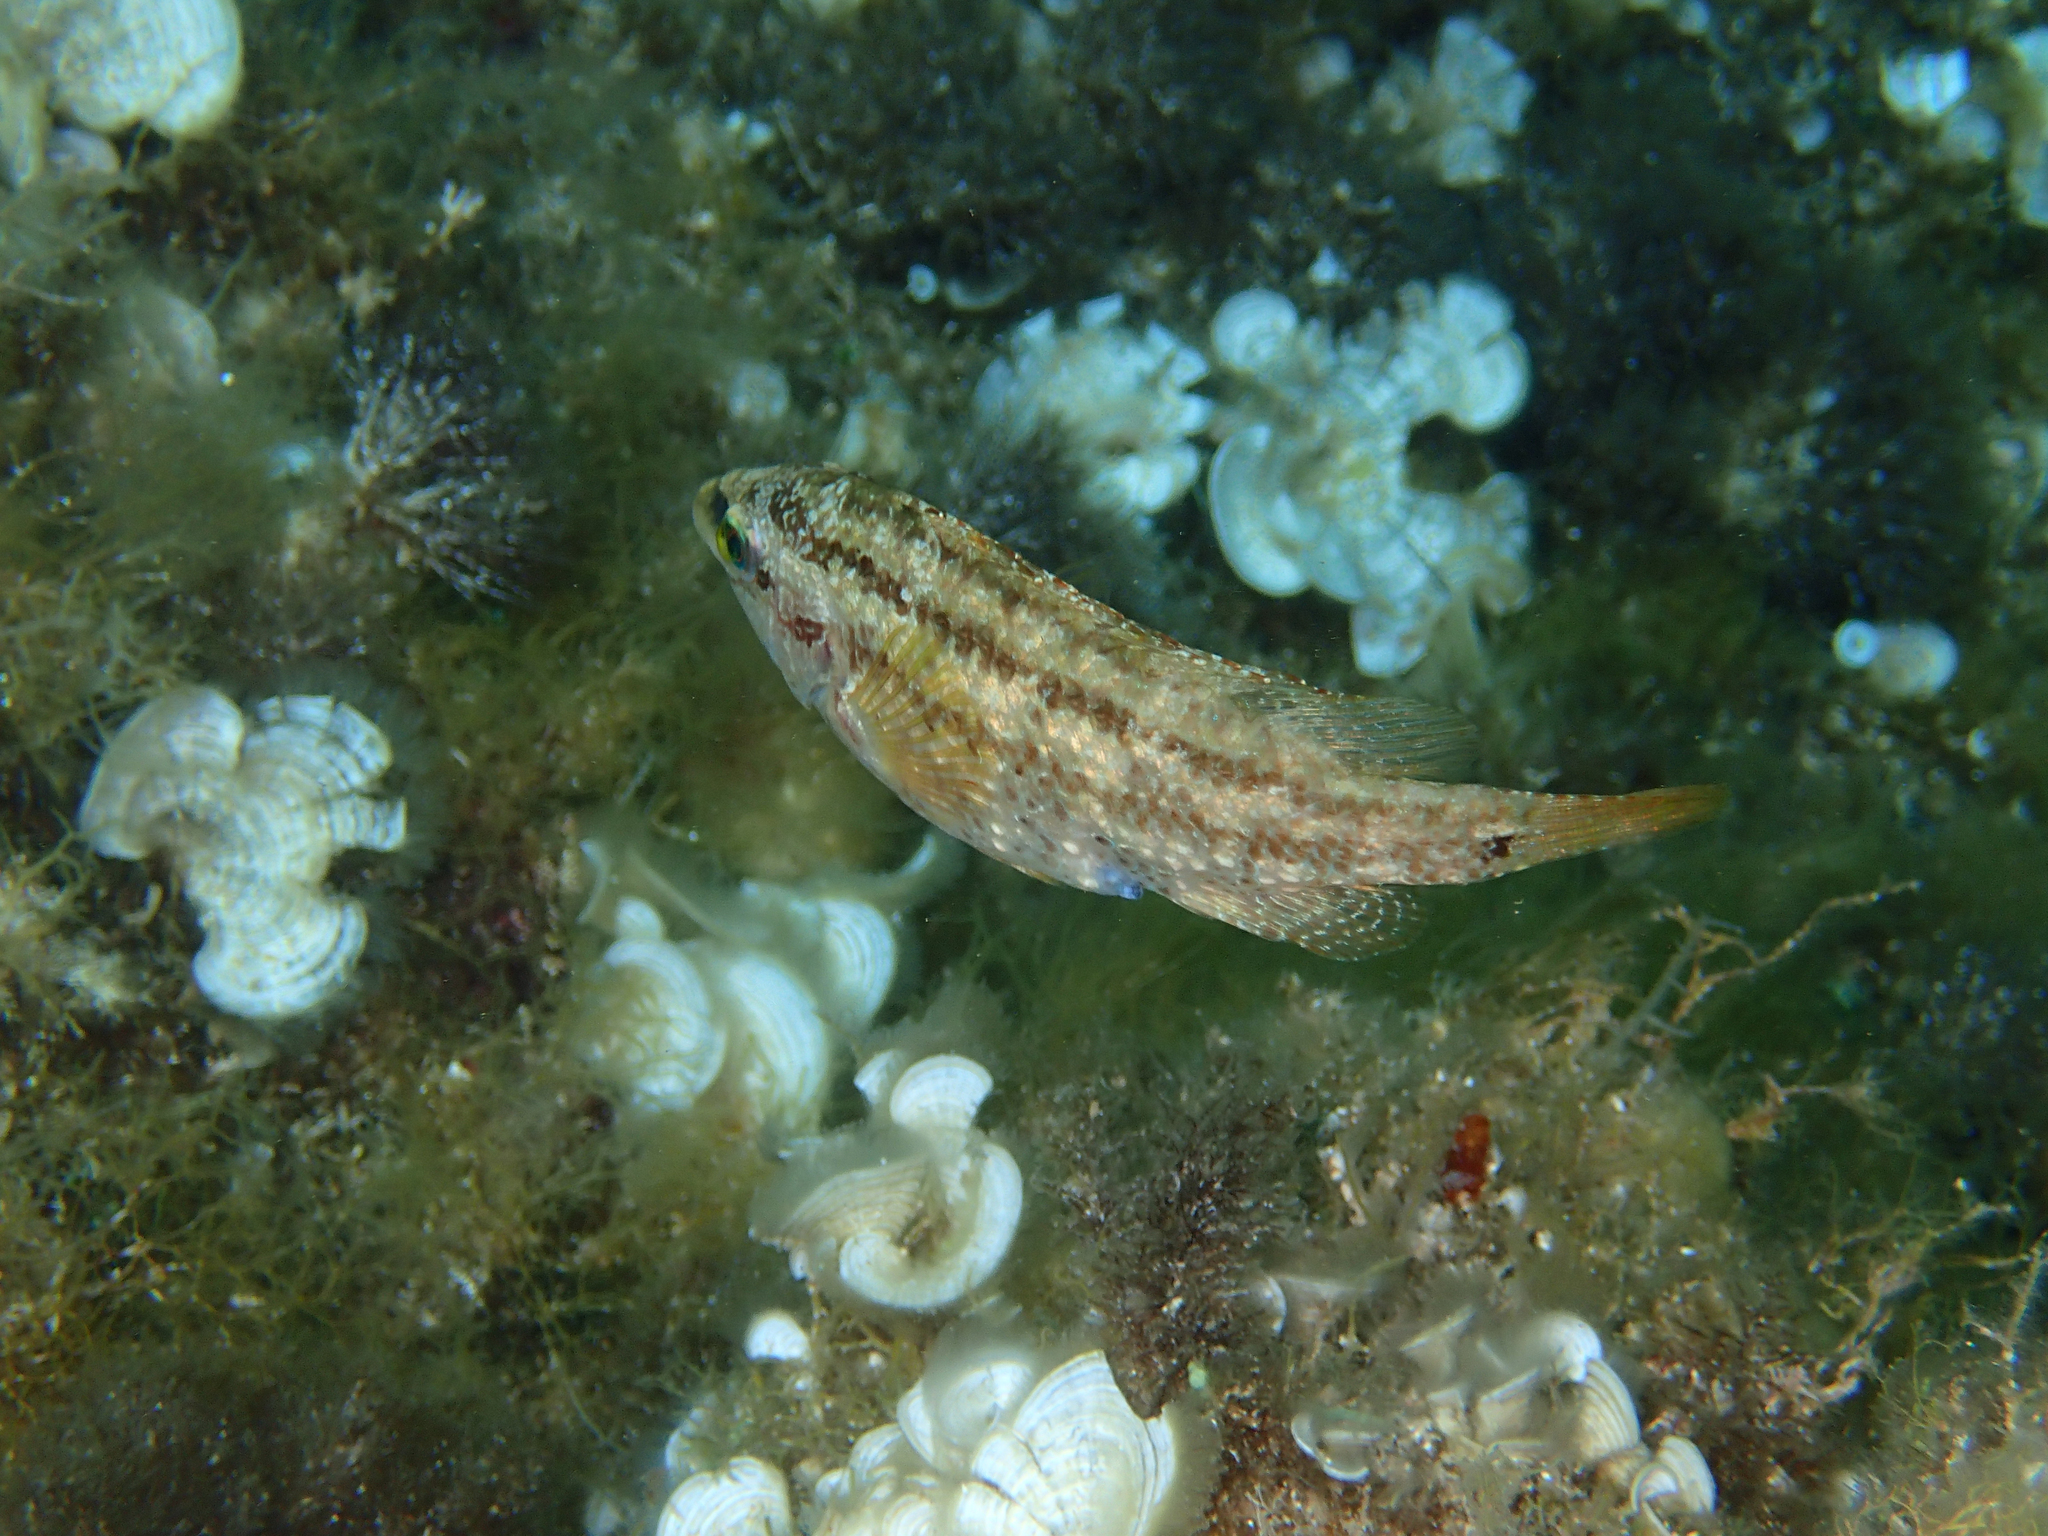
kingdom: Animalia
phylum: Chordata
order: Perciformes
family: Labridae
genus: Symphodus
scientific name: Symphodus roissali
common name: Five-spotted wrasse
